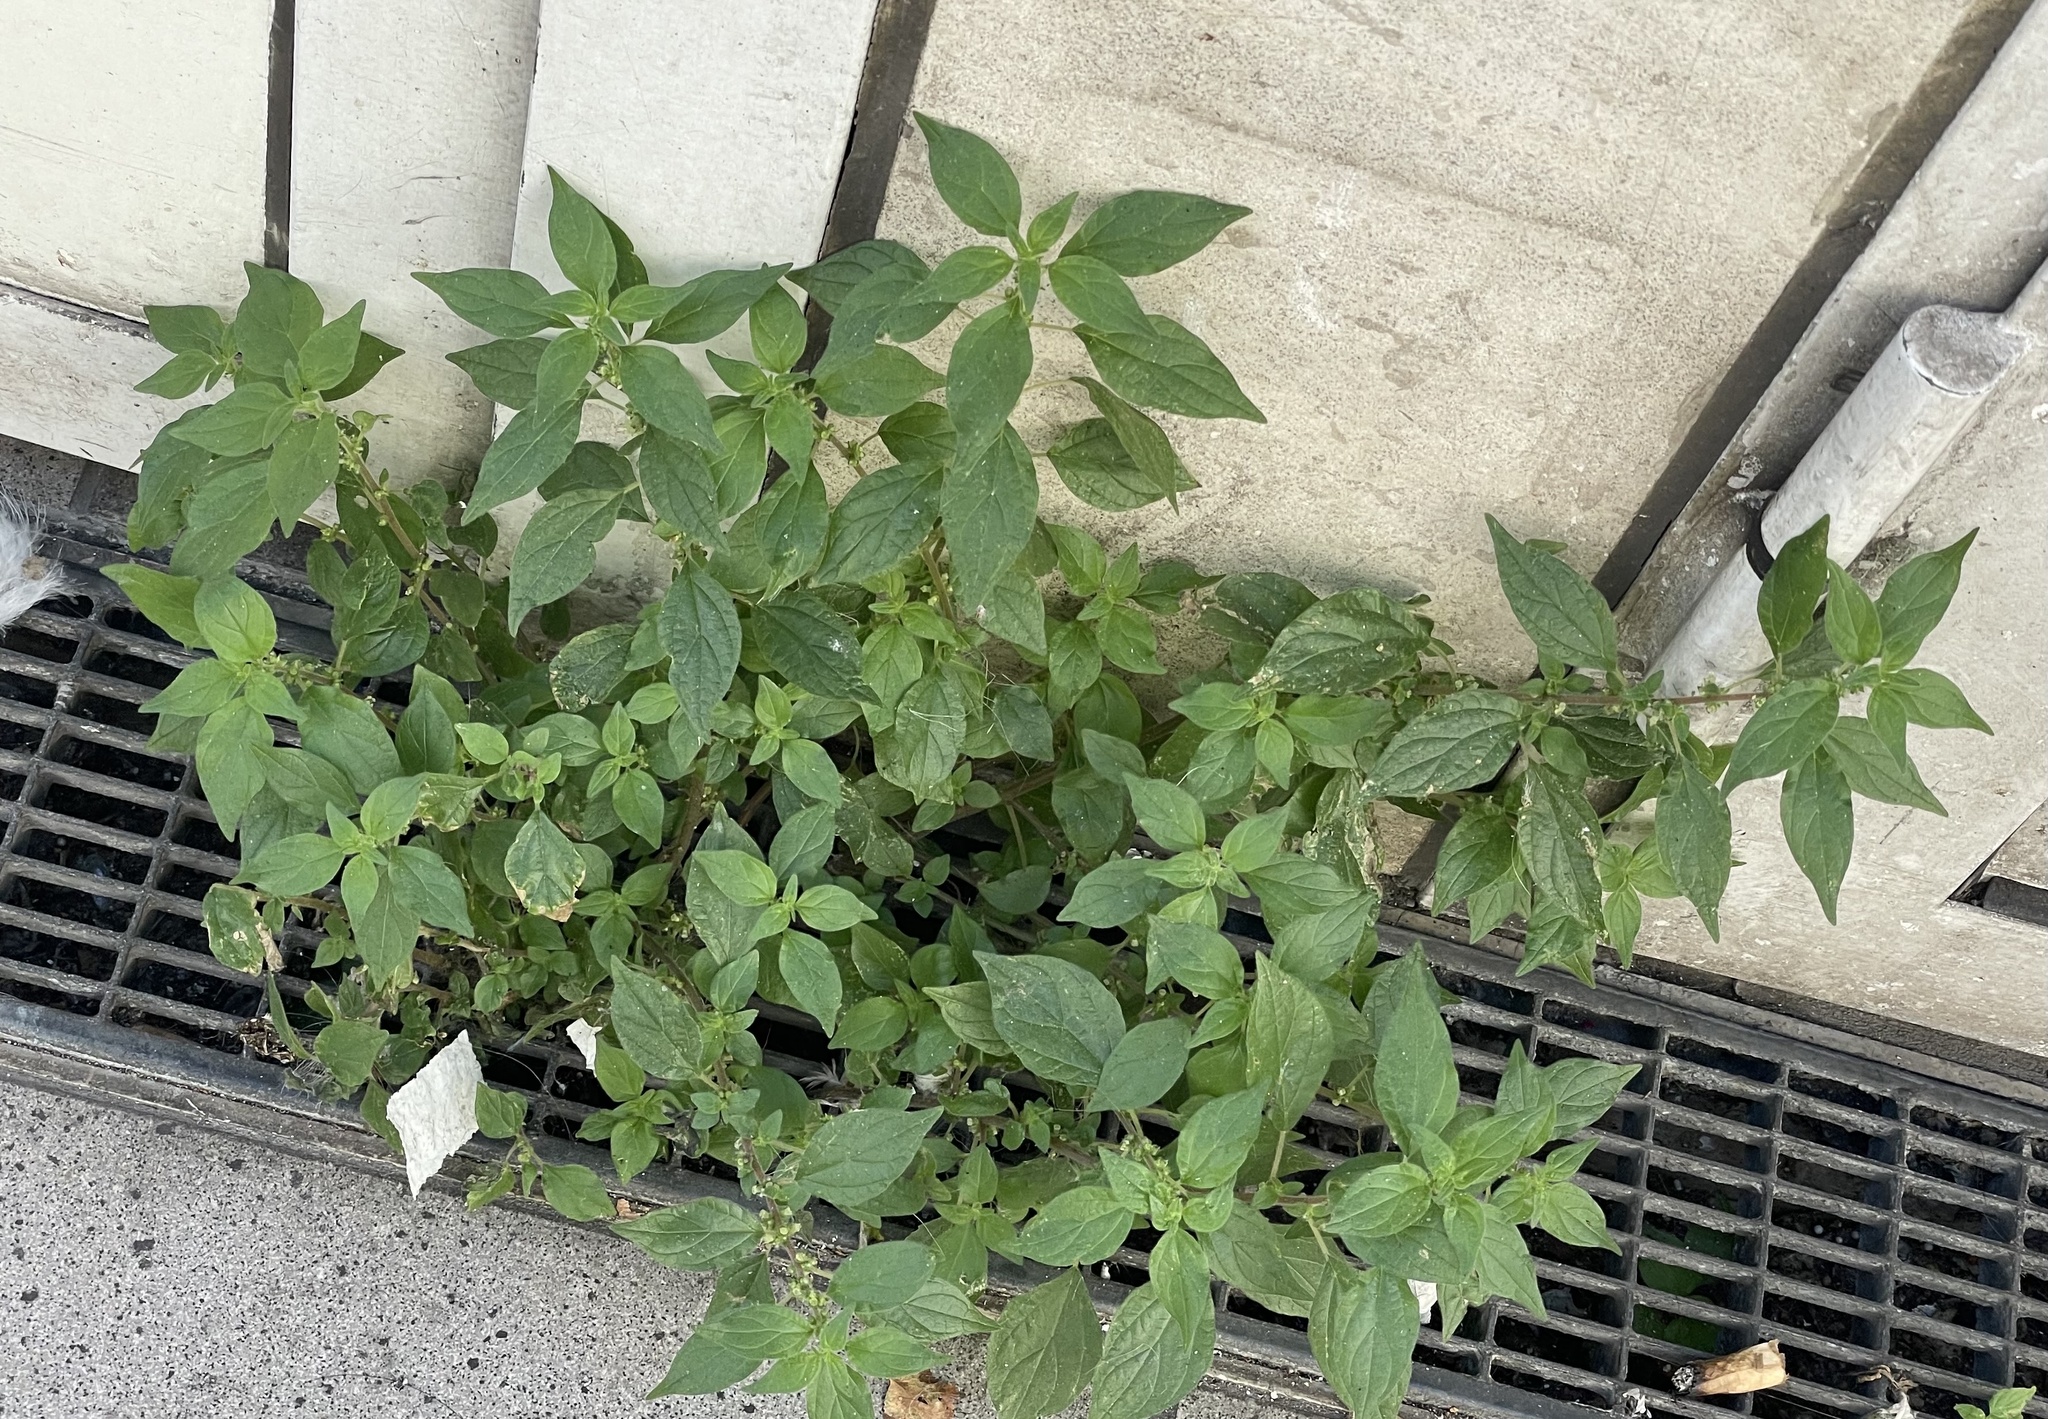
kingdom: Plantae
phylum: Tracheophyta
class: Magnoliopsida
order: Rosales
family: Urticaceae
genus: Parietaria
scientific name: Parietaria judaica
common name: Pellitory-of-the-wall
